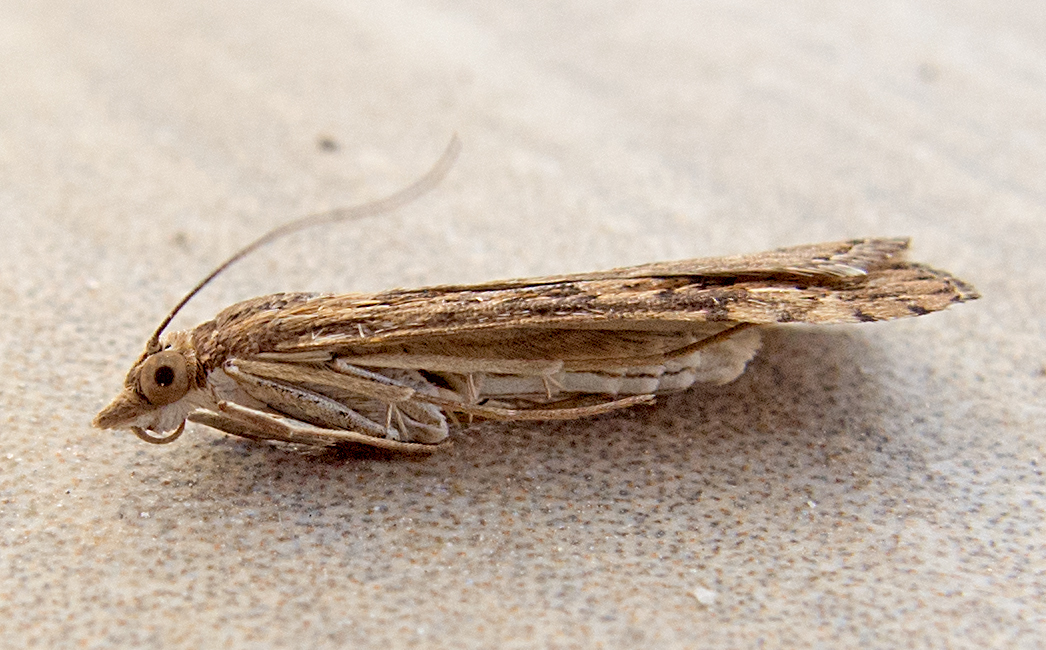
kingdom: Animalia
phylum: Arthropoda
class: Insecta
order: Lepidoptera
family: Crambidae
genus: Nomophila
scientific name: Nomophila noctuella
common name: Rush veneer
